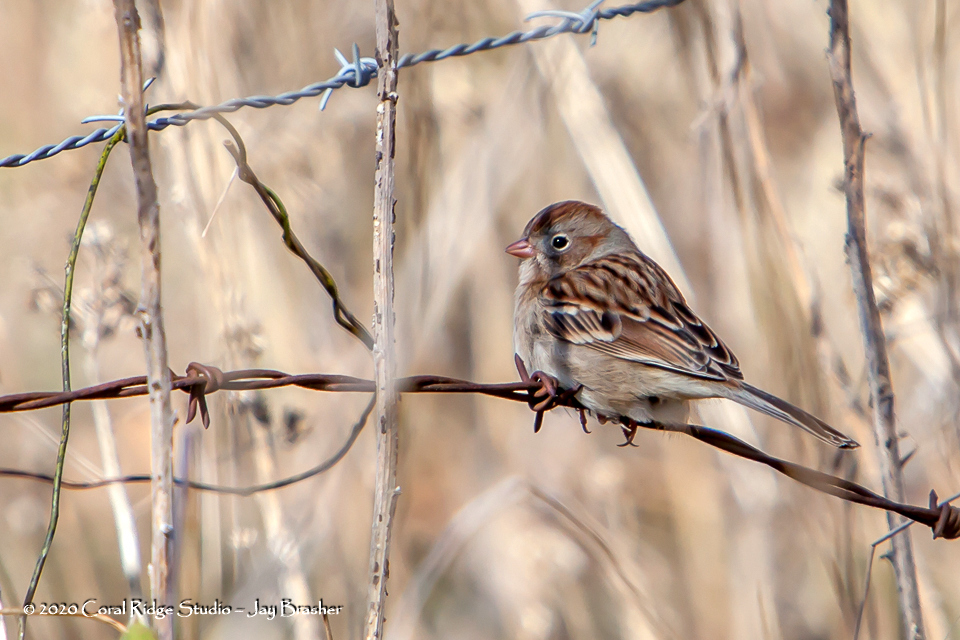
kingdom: Animalia
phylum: Chordata
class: Aves
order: Passeriformes
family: Passerellidae
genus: Spizella
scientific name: Spizella pusilla
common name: Field sparrow
